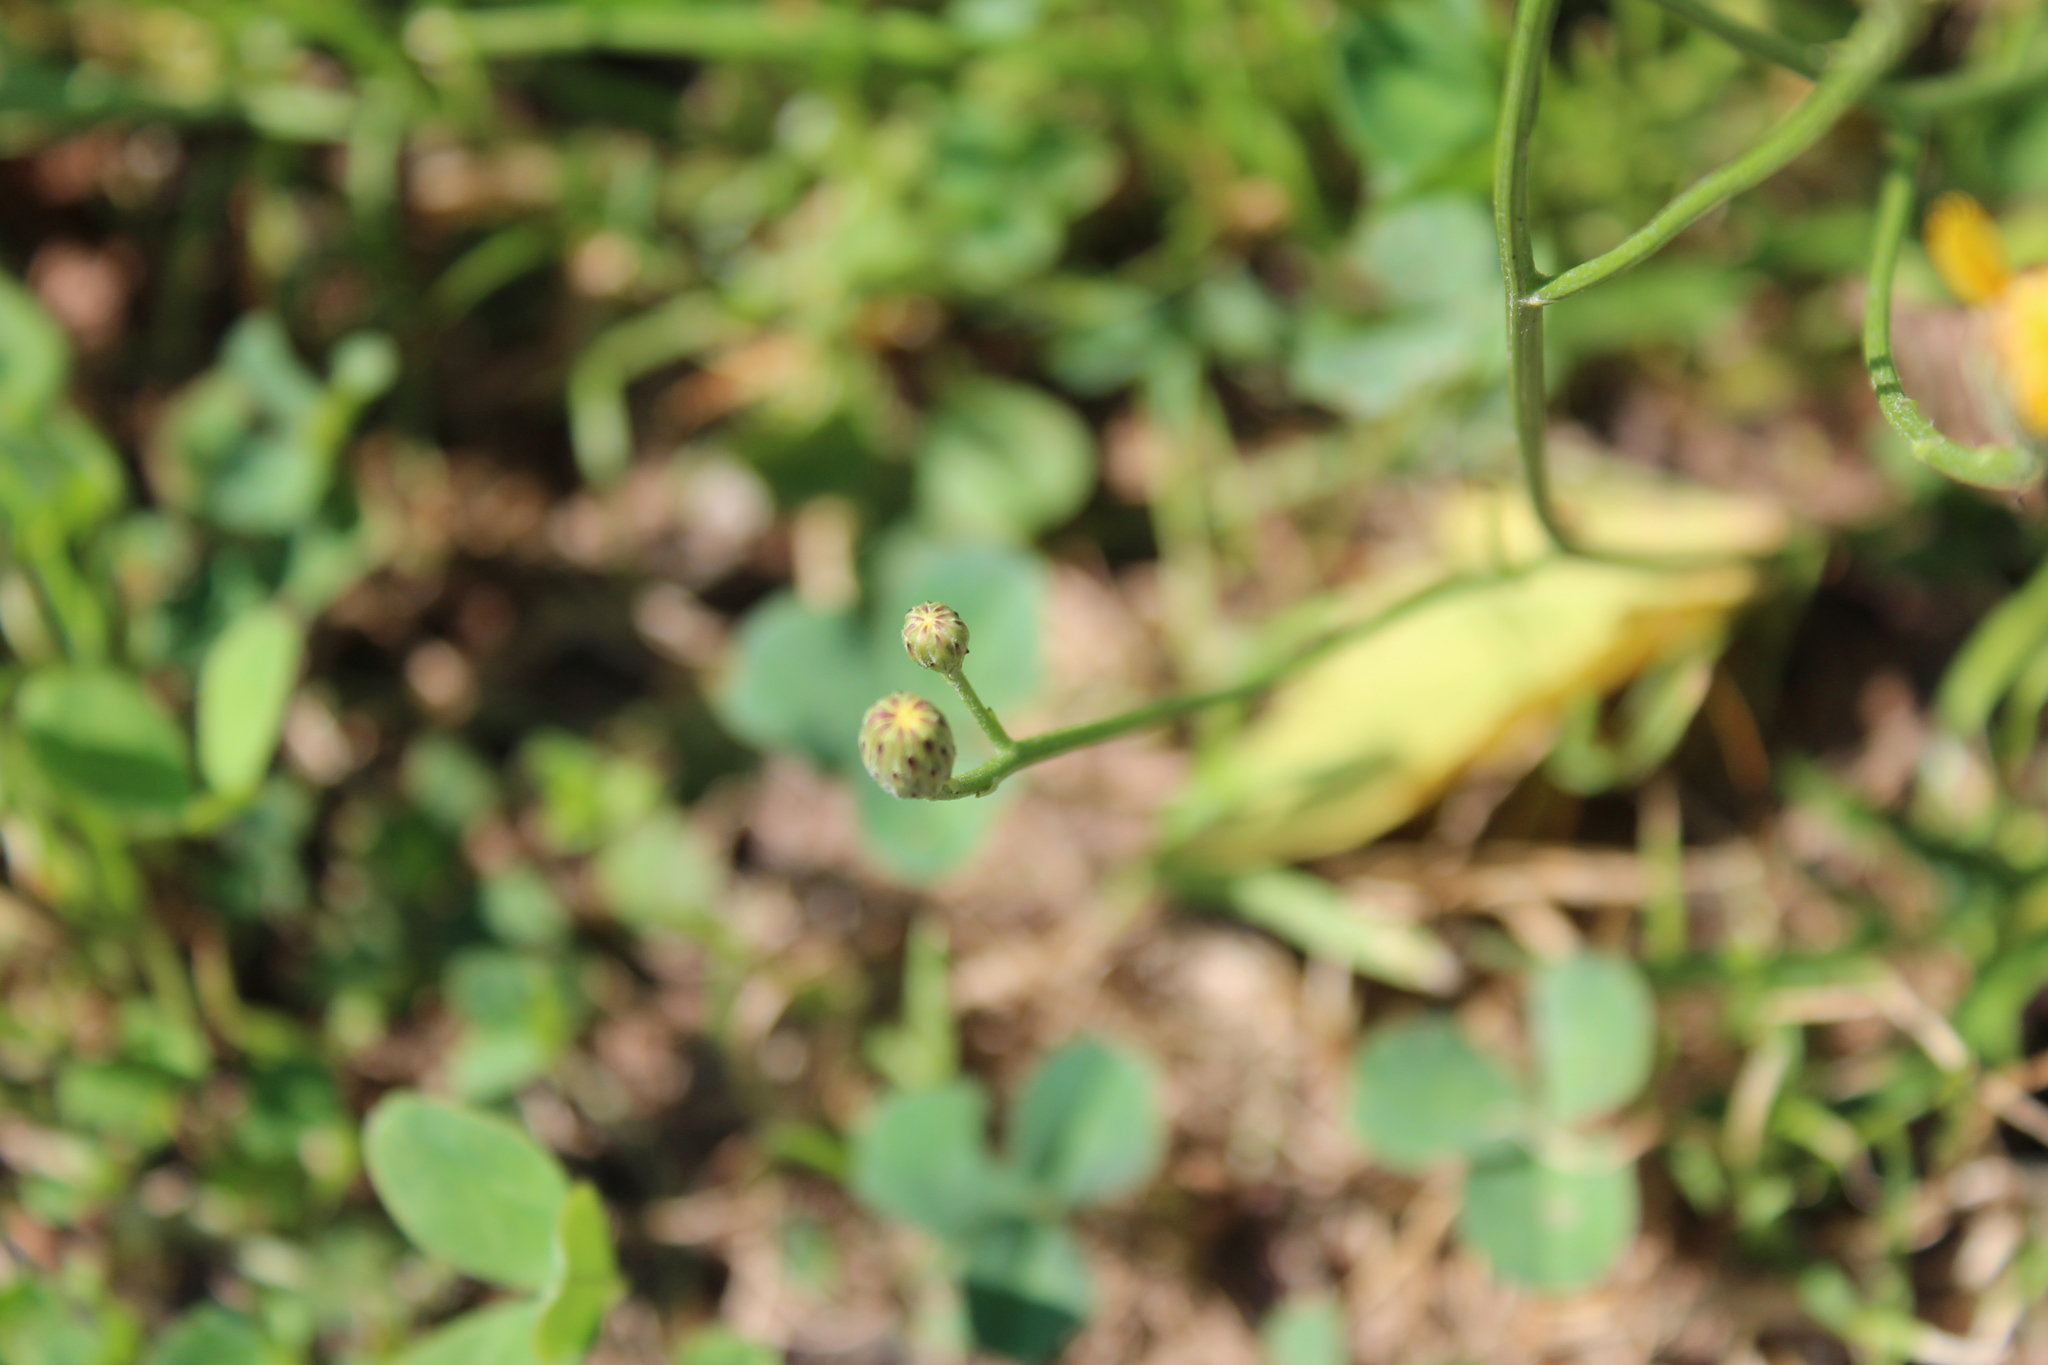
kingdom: Plantae
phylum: Tracheophyta
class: Magnoliopsida
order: Asterales
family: Asteraceae
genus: Scorzoneroides
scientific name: Scorzoneroides autumnalis
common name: Autumn hawkbit
